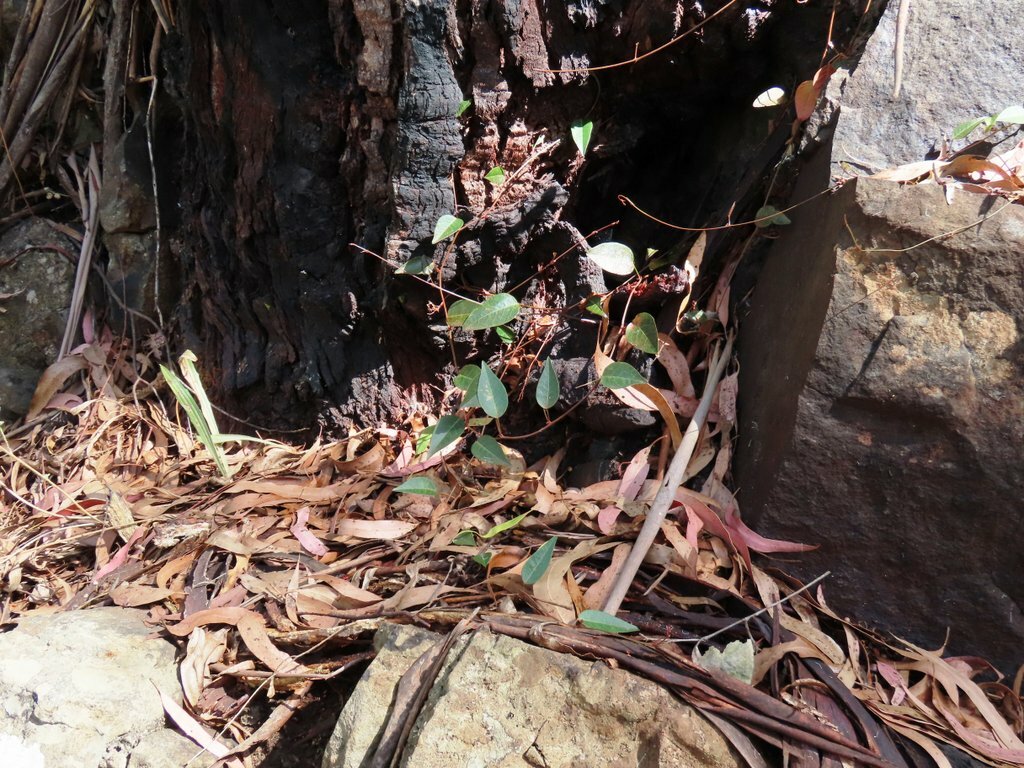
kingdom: Plantae
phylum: Tracheophyta
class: Magnoliopsida
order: Fabales
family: Fabaceae
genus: Hardenbergia
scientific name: Hardenbergia violacea
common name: Coral-pea
